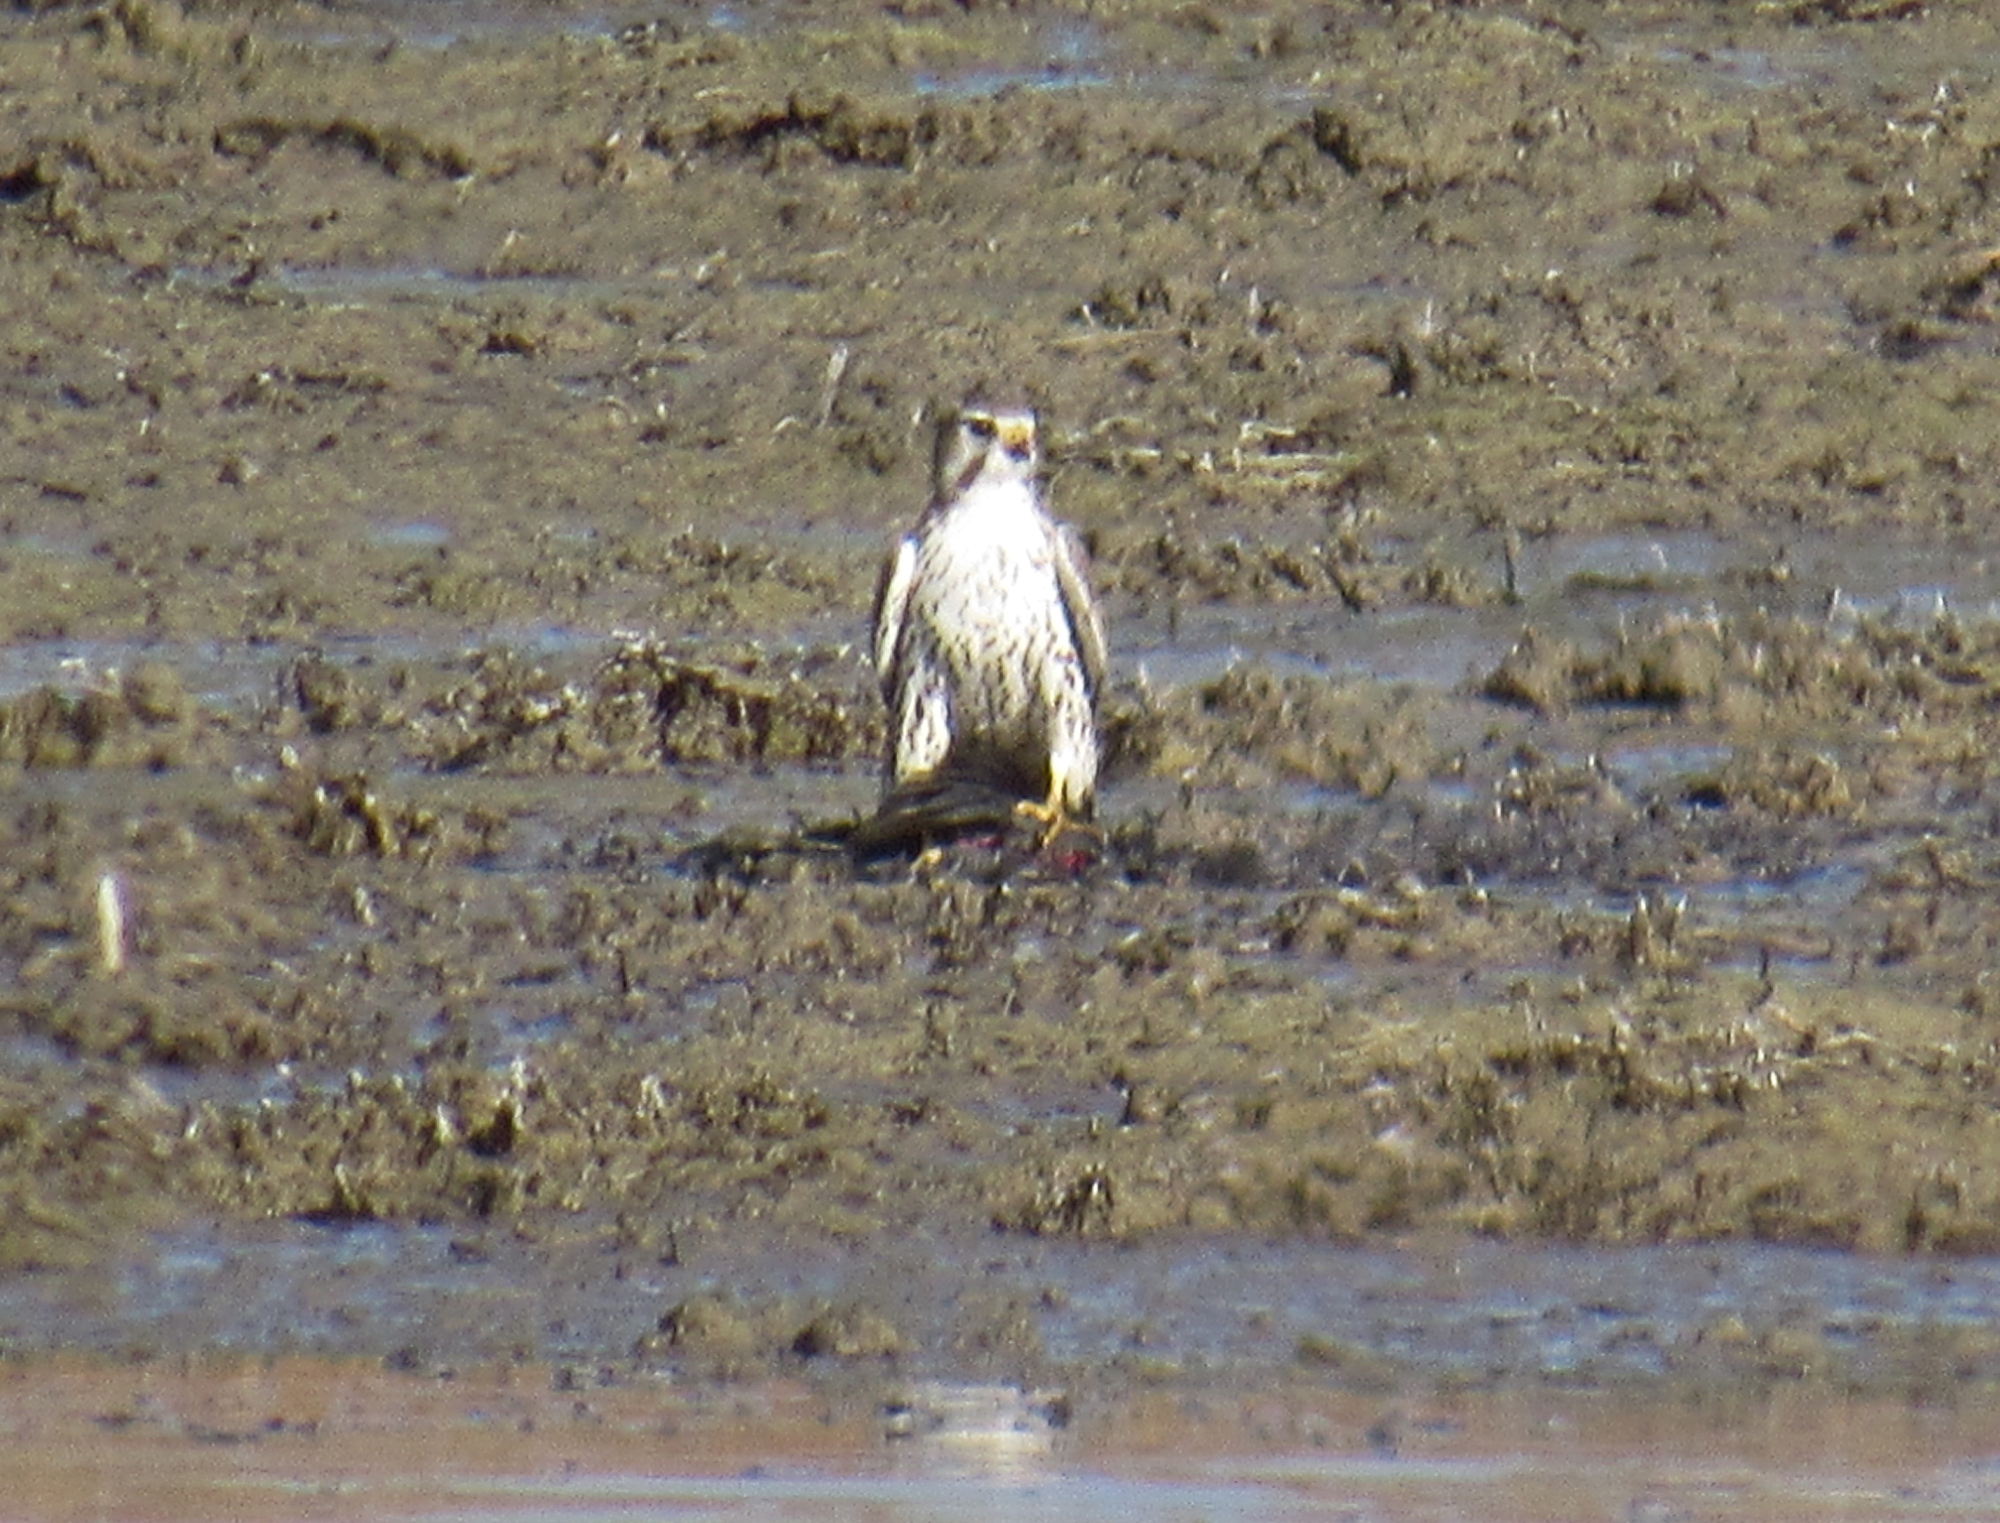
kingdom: Animalia
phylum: Chordata
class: Aves
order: Falconiformes
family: Falconidae
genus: Falco
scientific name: Falco mexicanus
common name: Prairie falcon
